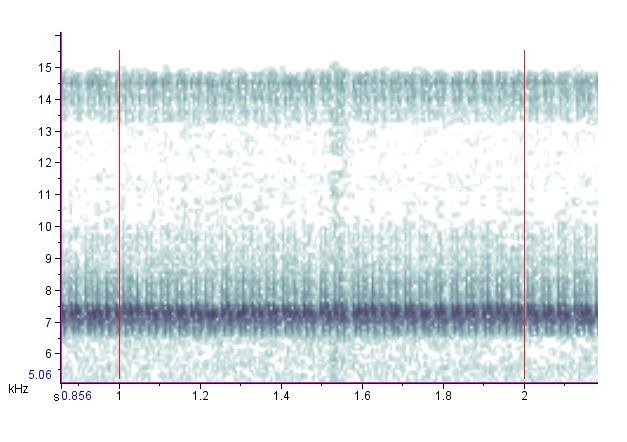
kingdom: Animalia
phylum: Arthropoda
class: Insecta
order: Orthoptera
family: Trigonidiidae
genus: Phyllopalpus
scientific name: Phyllopalpus pulchellus
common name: Handsome trig
